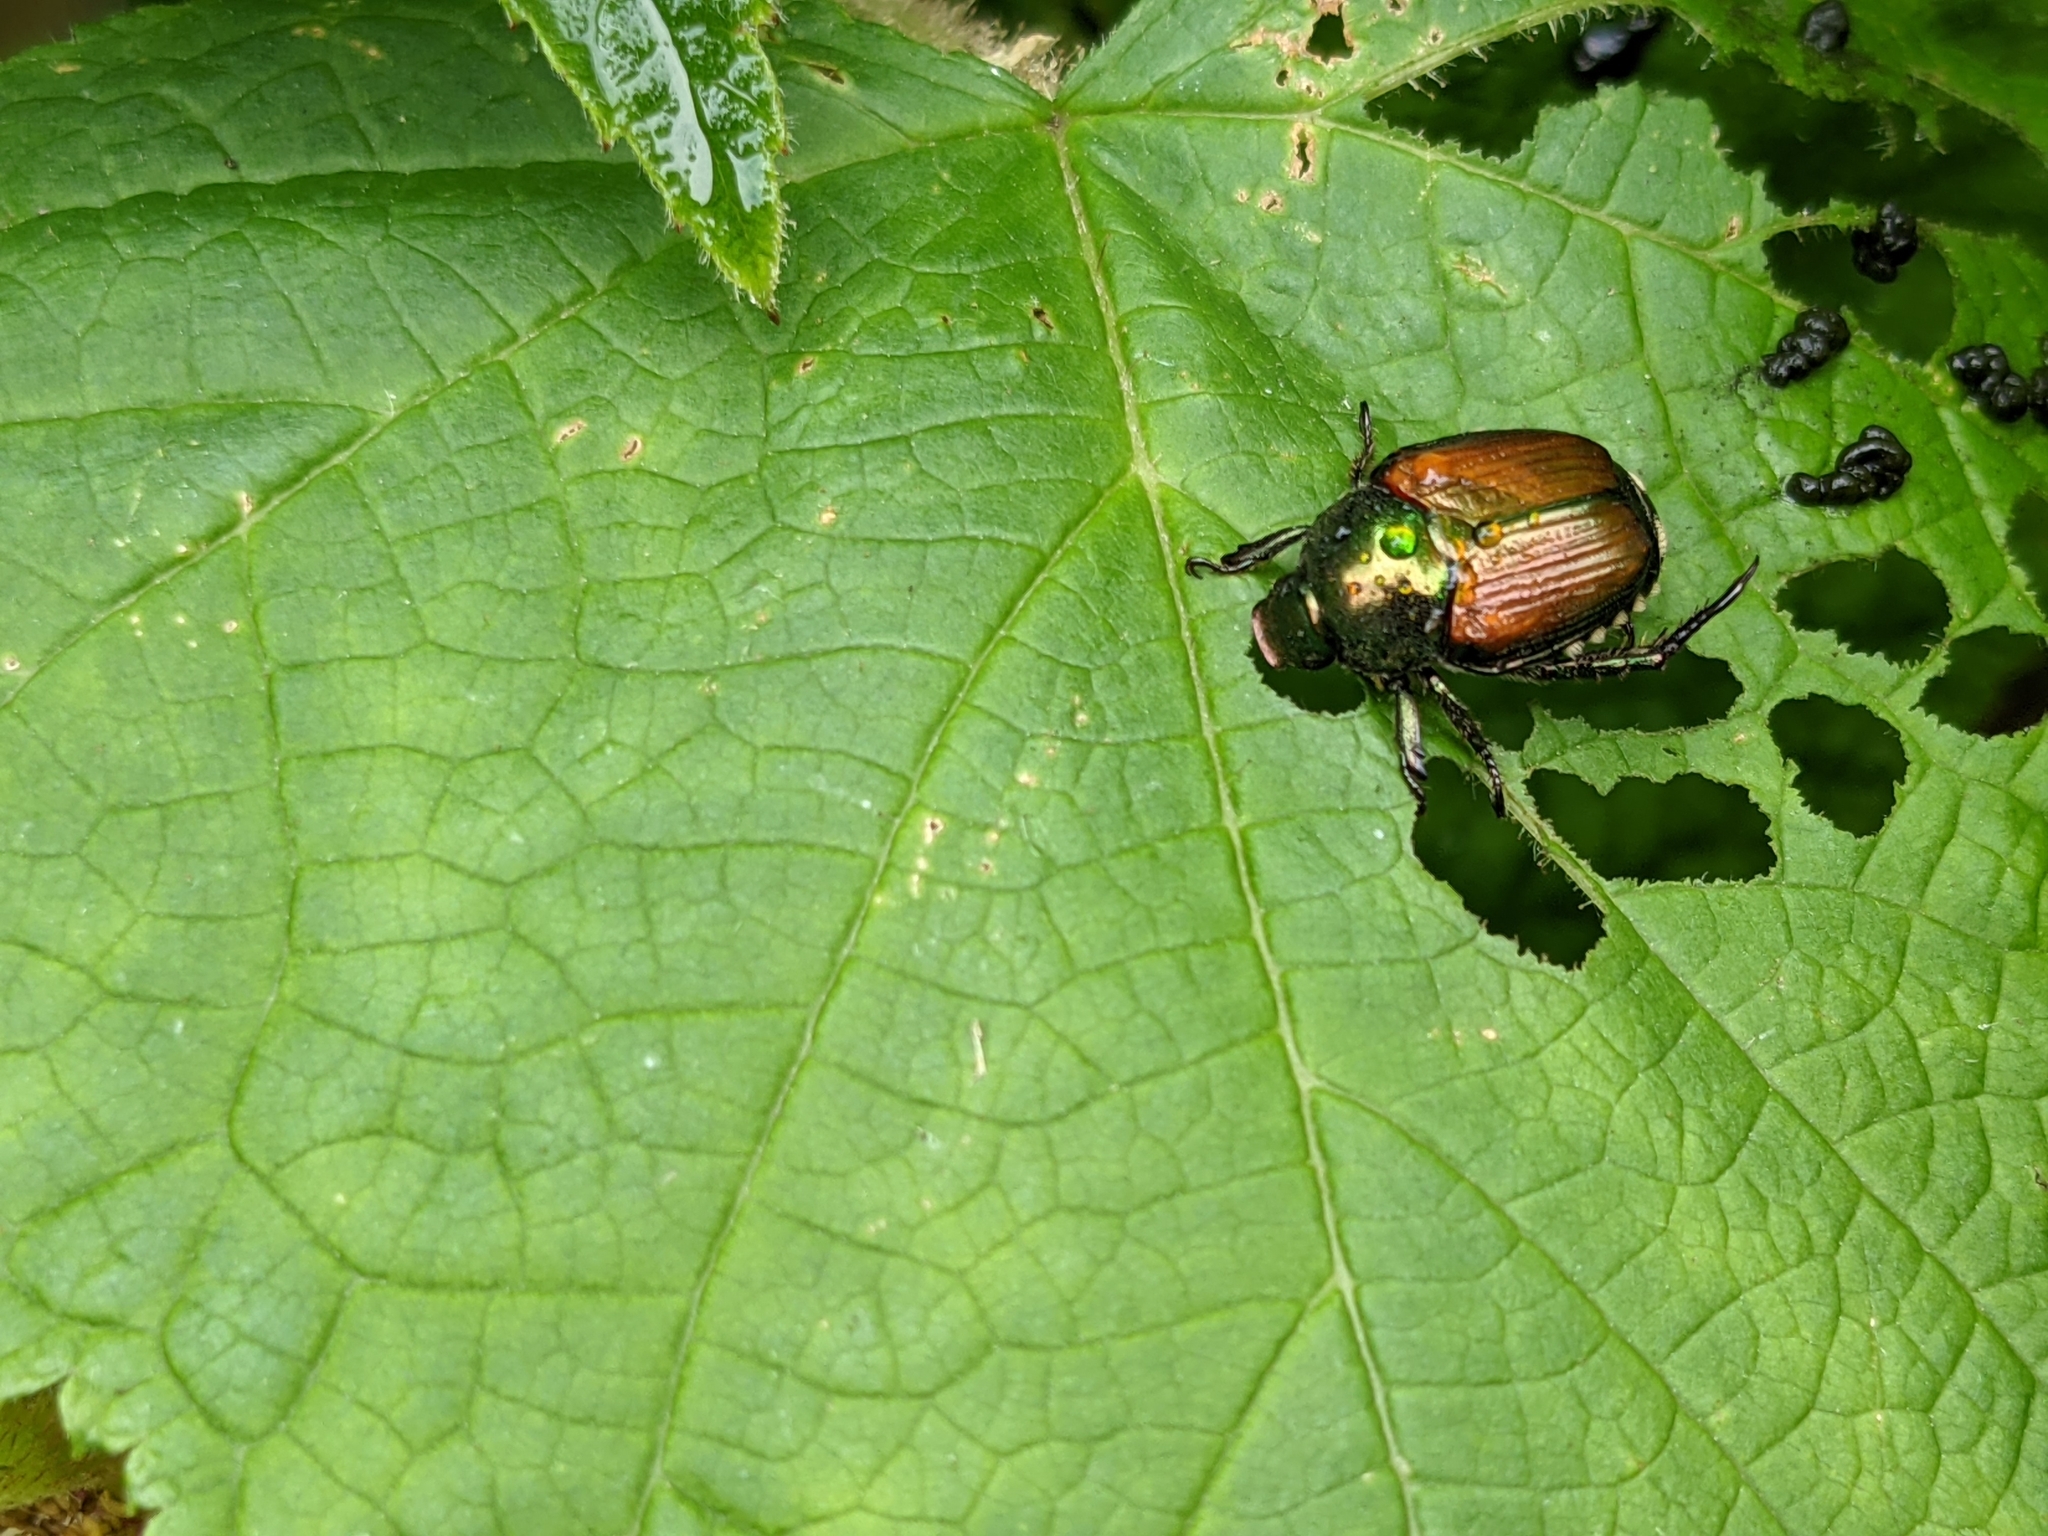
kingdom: Animalia
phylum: Arthropoda
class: Insecta
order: Coleoptera
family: Scarabaeidae
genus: Popillia
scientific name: Popillia japonica
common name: Japanese beetle
